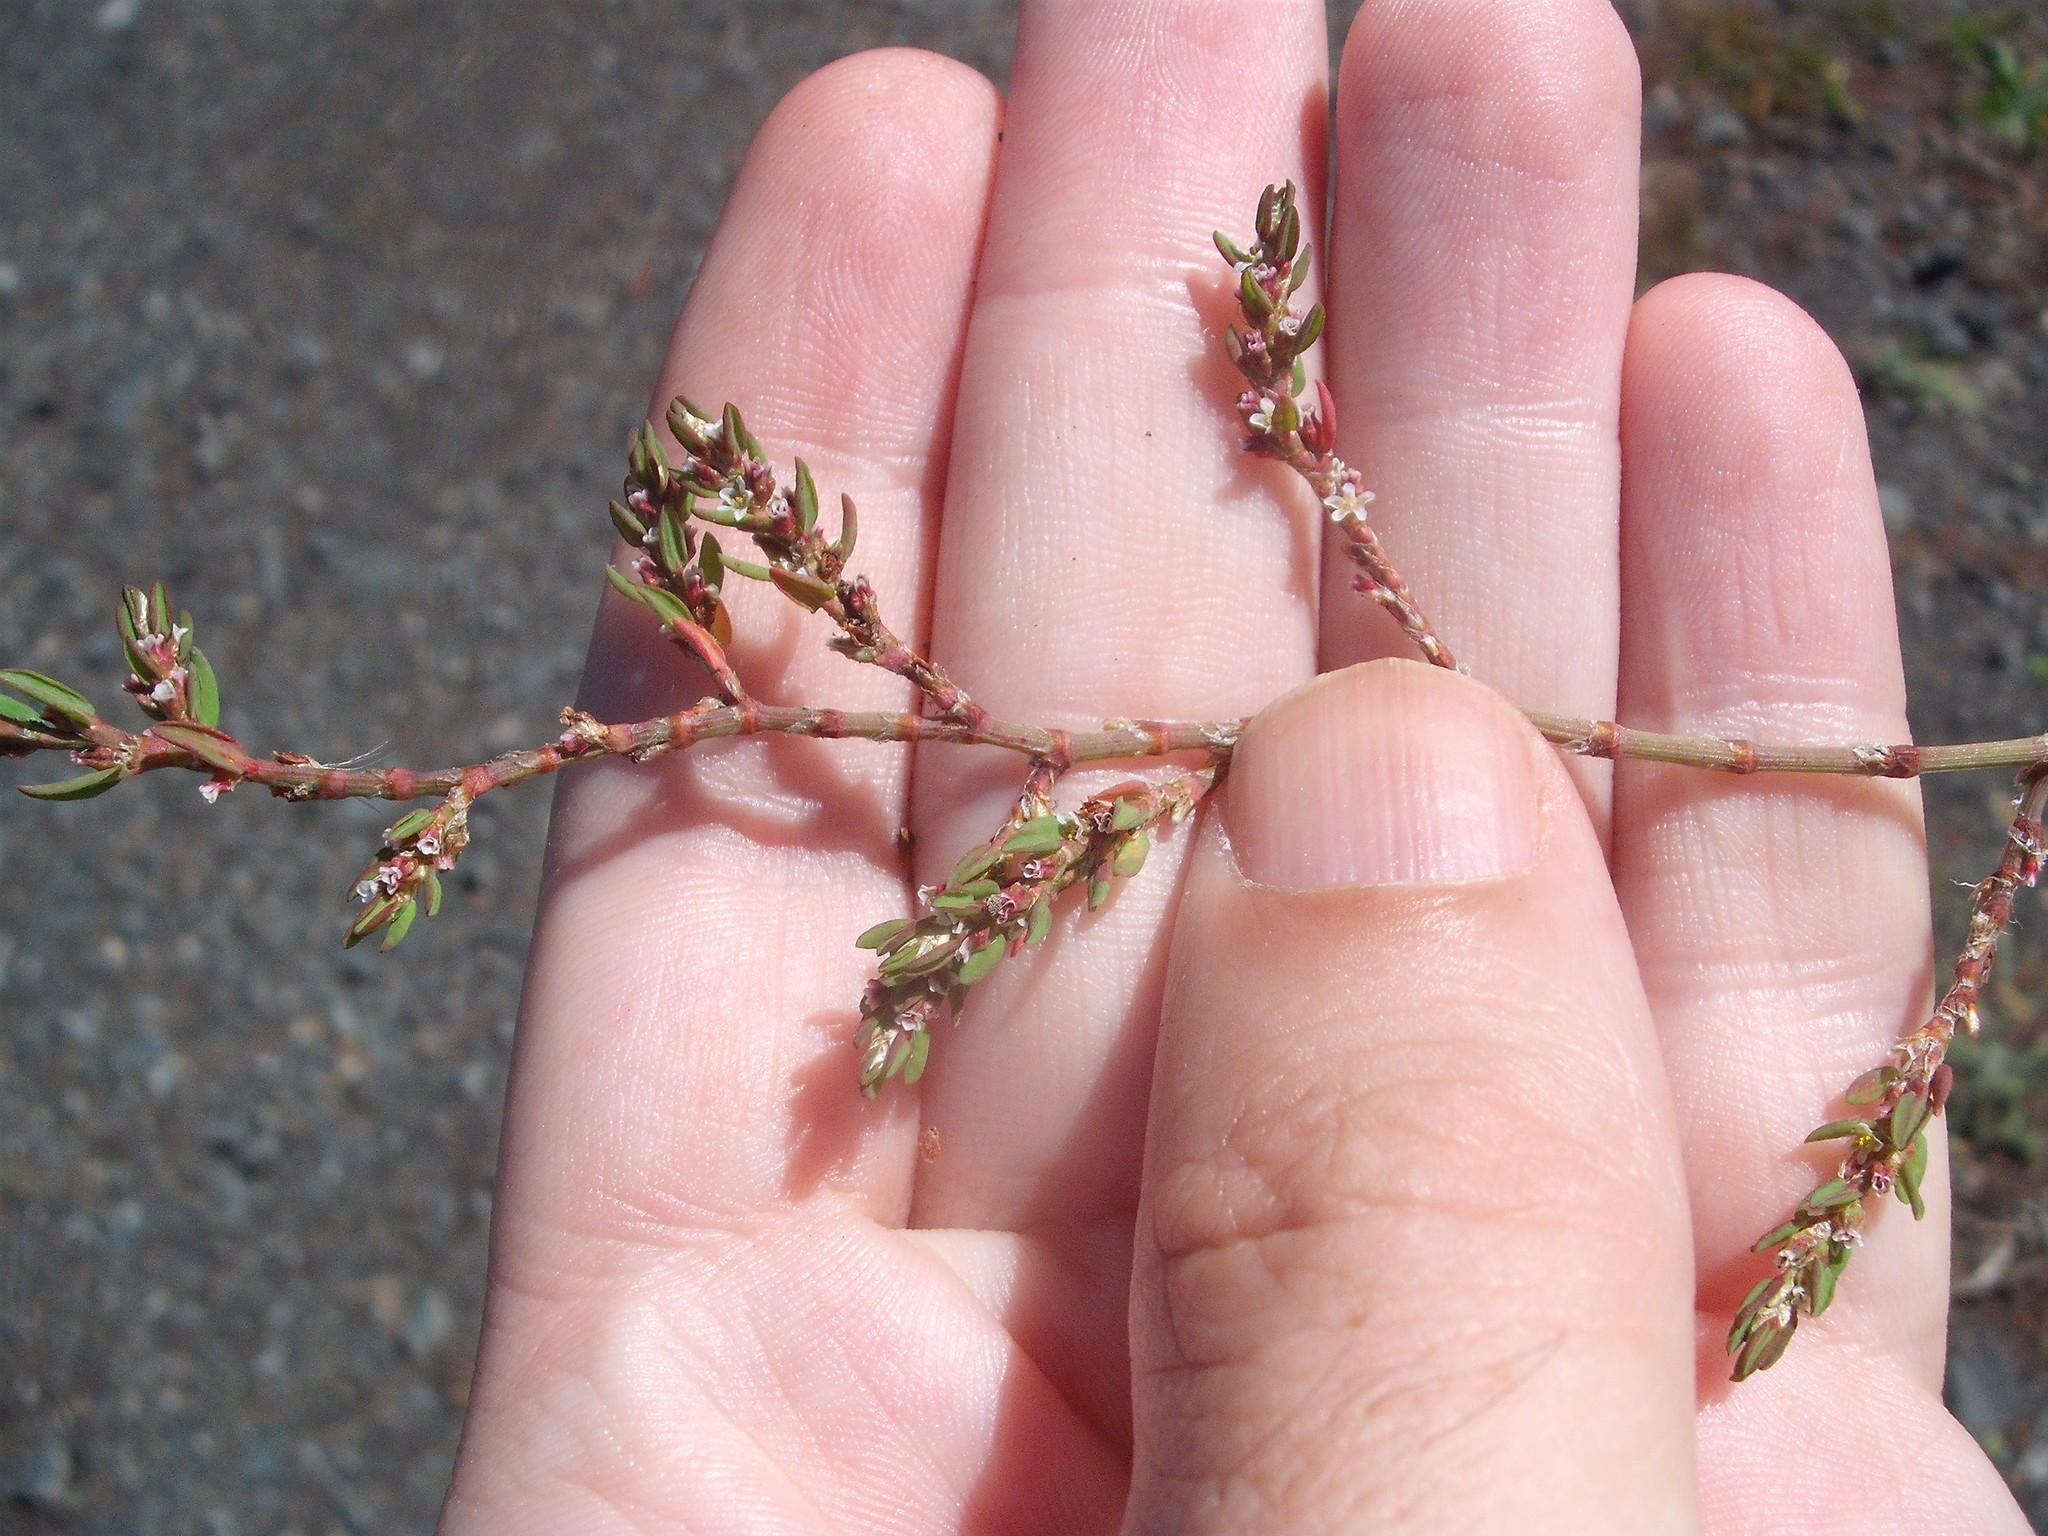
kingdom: Plantae
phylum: Tracheophyta
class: Magnoliopsida
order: Caryophyllales
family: Polygonaceae
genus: Polygonum
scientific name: Polygonum aviculare
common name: Prostrate knotweed
